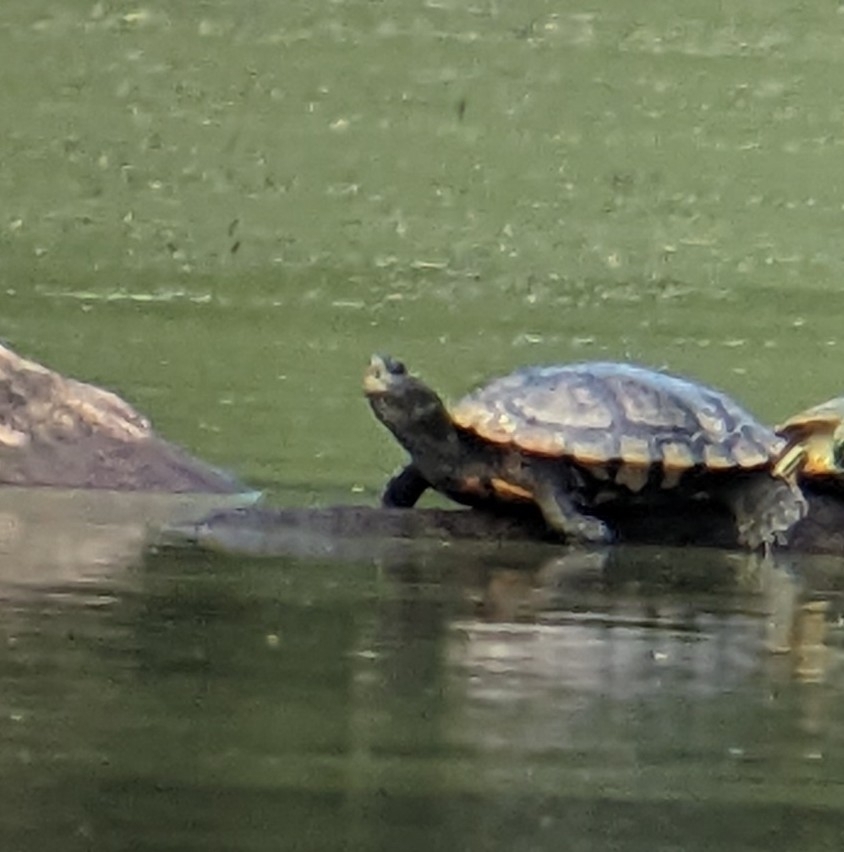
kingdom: Animalia
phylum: Chordata
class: Testudines
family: Emydidae
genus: Trachemys
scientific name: Trachemys scripta
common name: Slider
